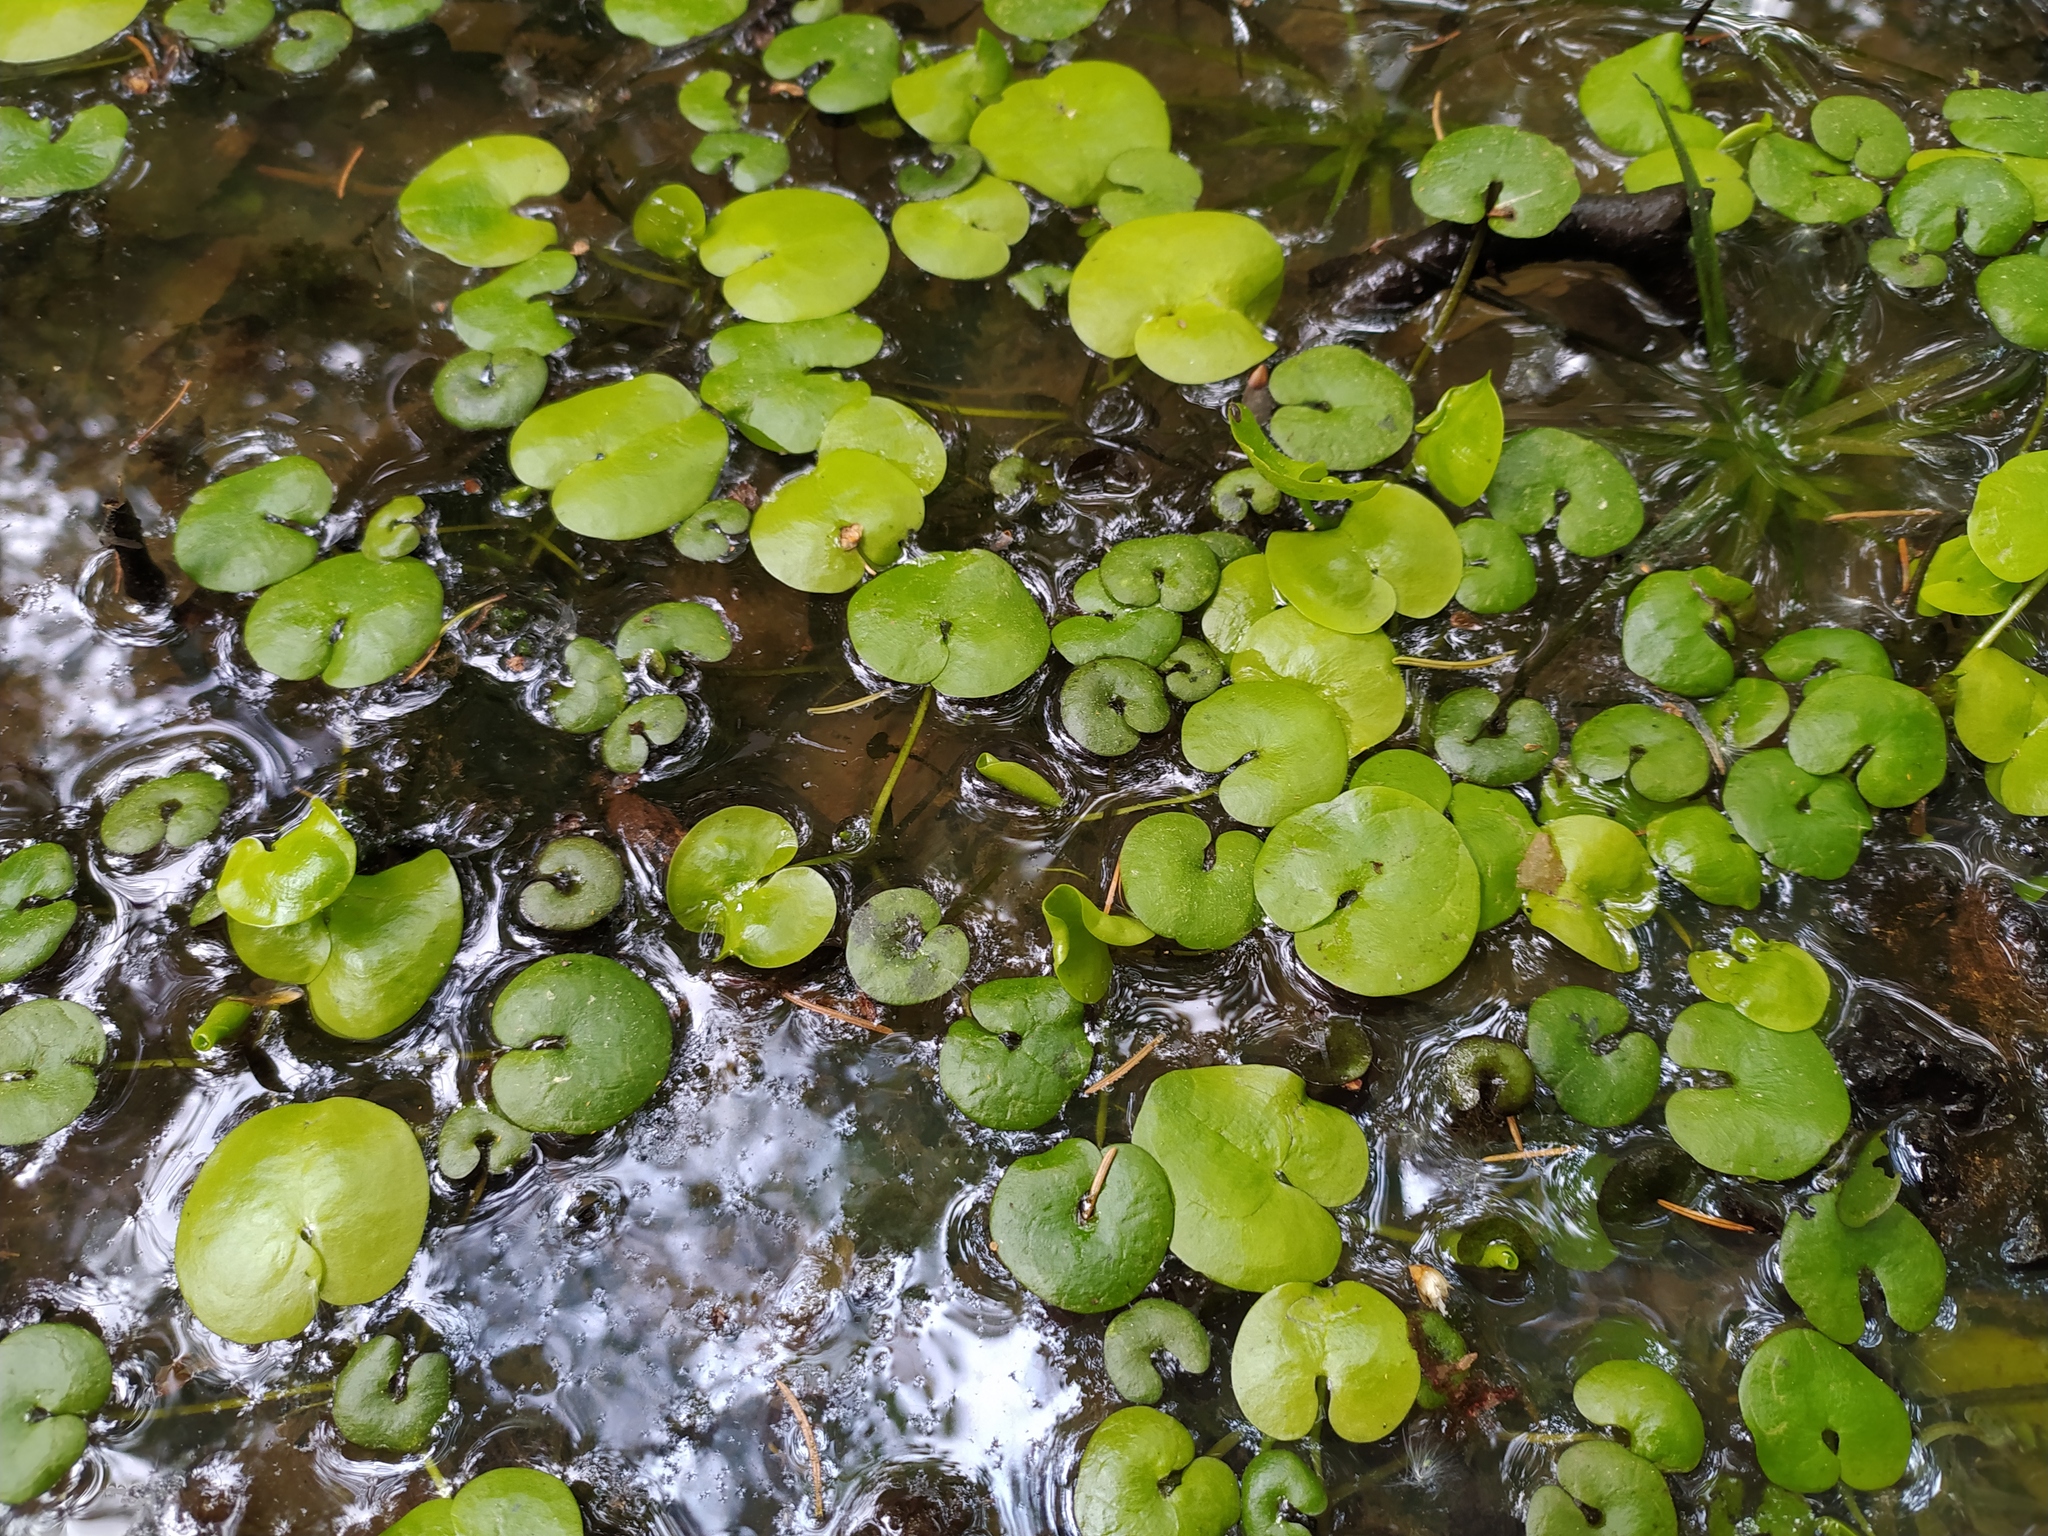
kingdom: Plantae
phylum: Tracheophyta
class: Liliopsida
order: Alismatales
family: Hydrocharitaceae
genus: Hydrocharis
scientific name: Hydrocharis morsus-ranae
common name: Frogbit
